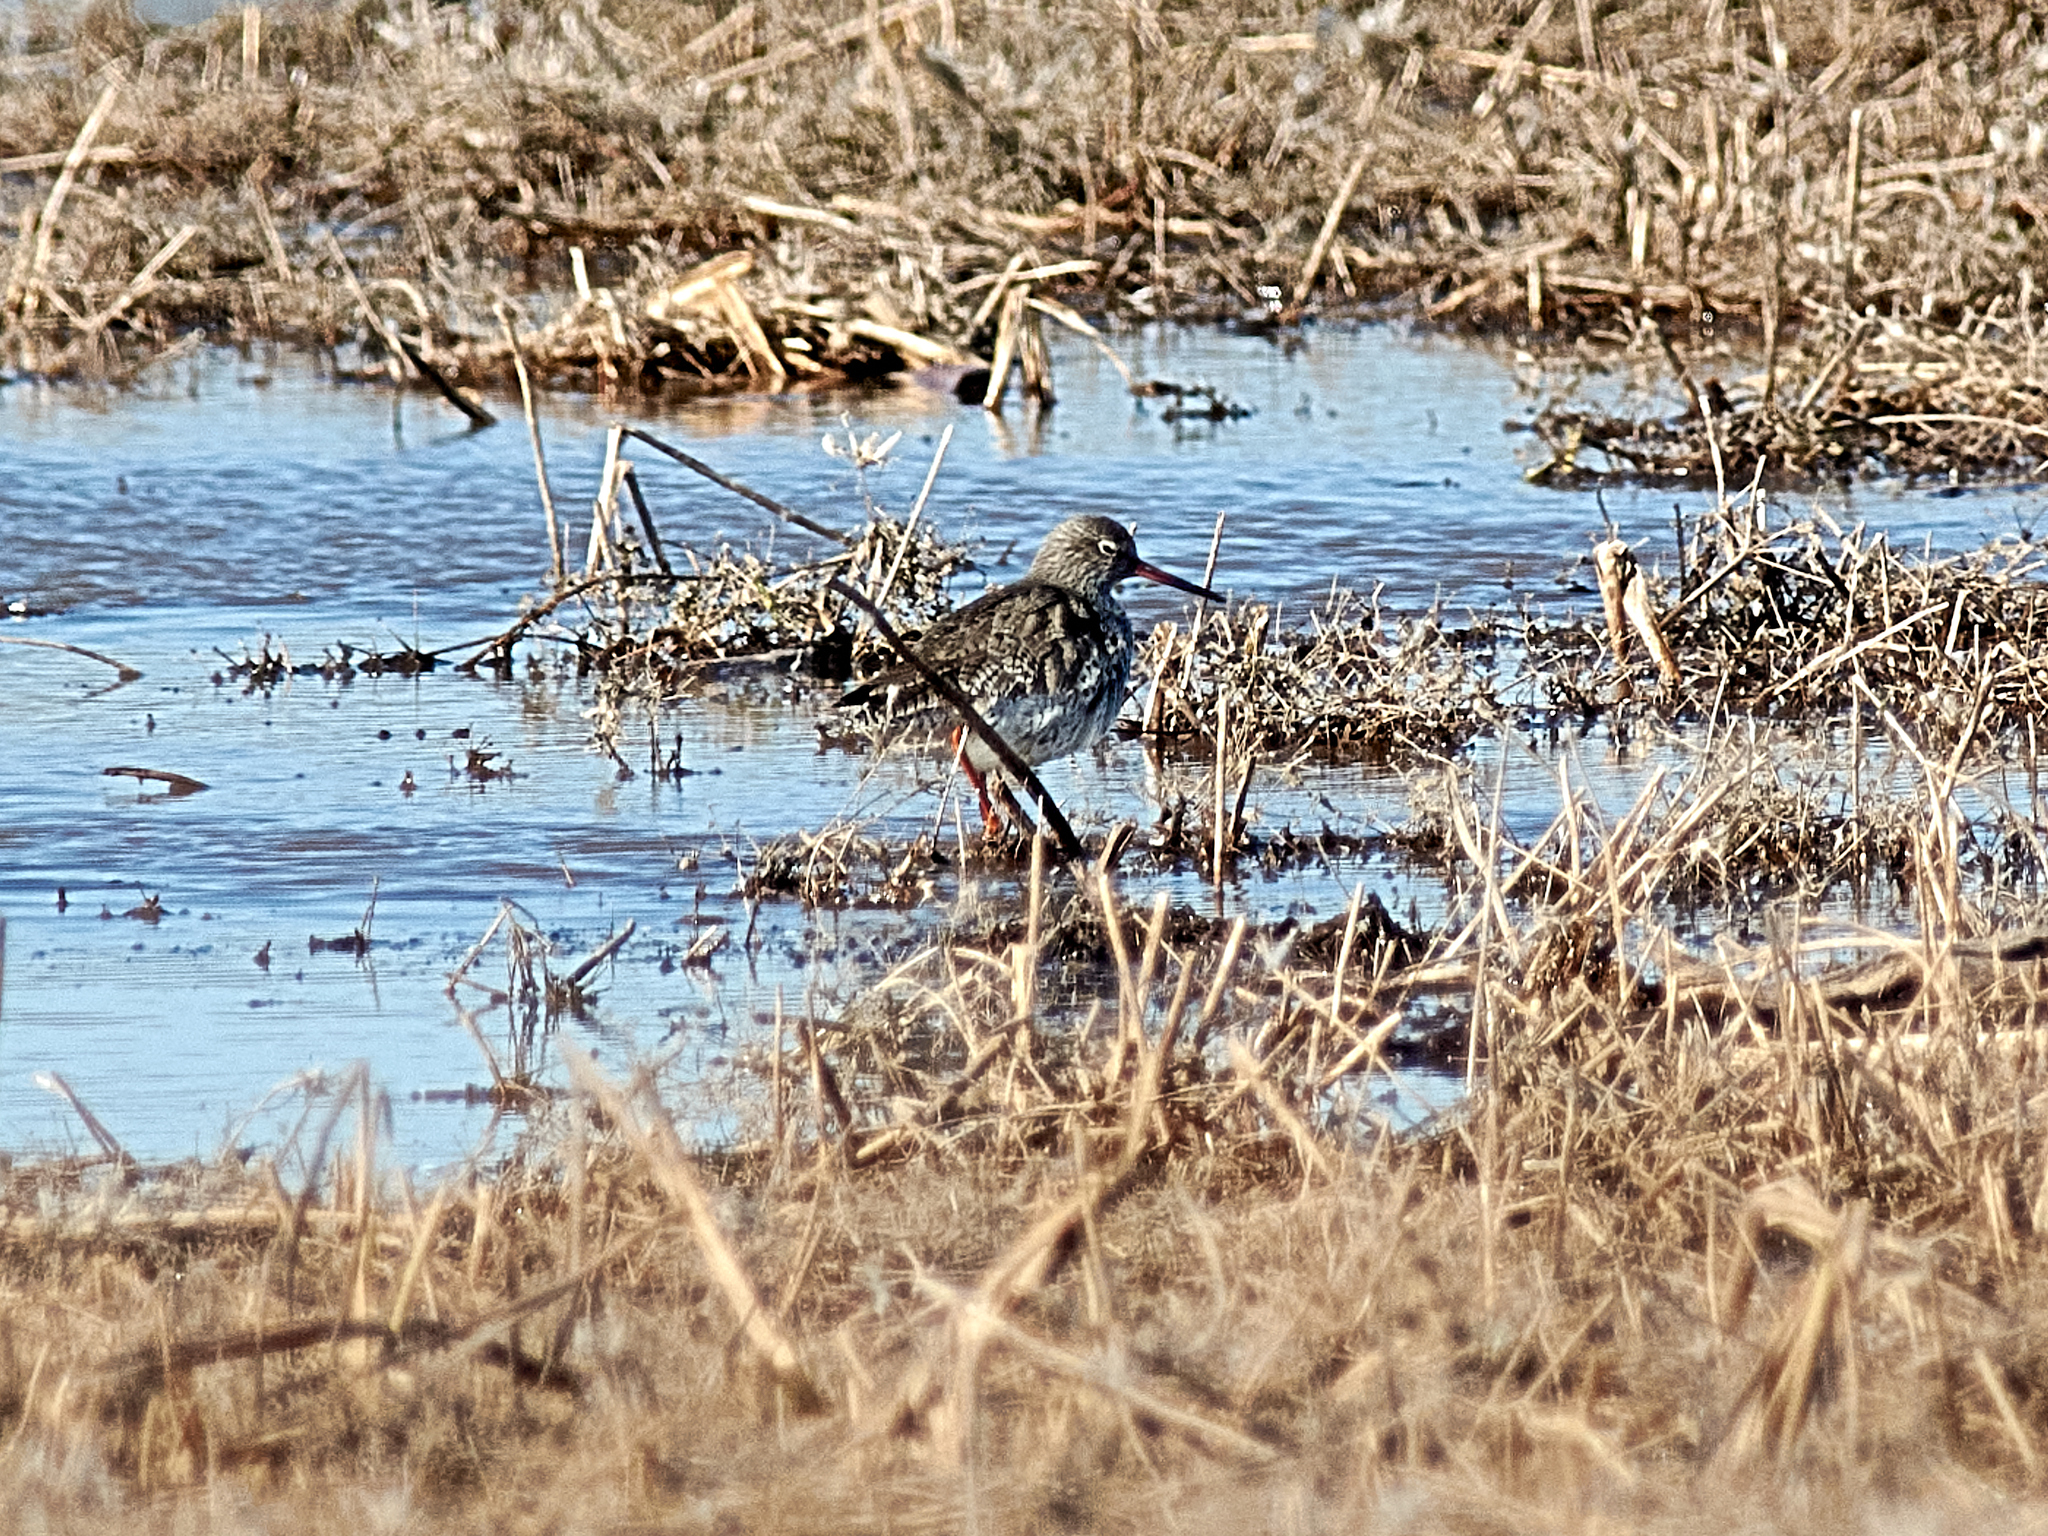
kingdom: Animalia
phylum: Chordata
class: Aves
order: Charadriiformes
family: Scolopacidae
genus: Tringa
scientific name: Tringa totanus
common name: Common redshank
